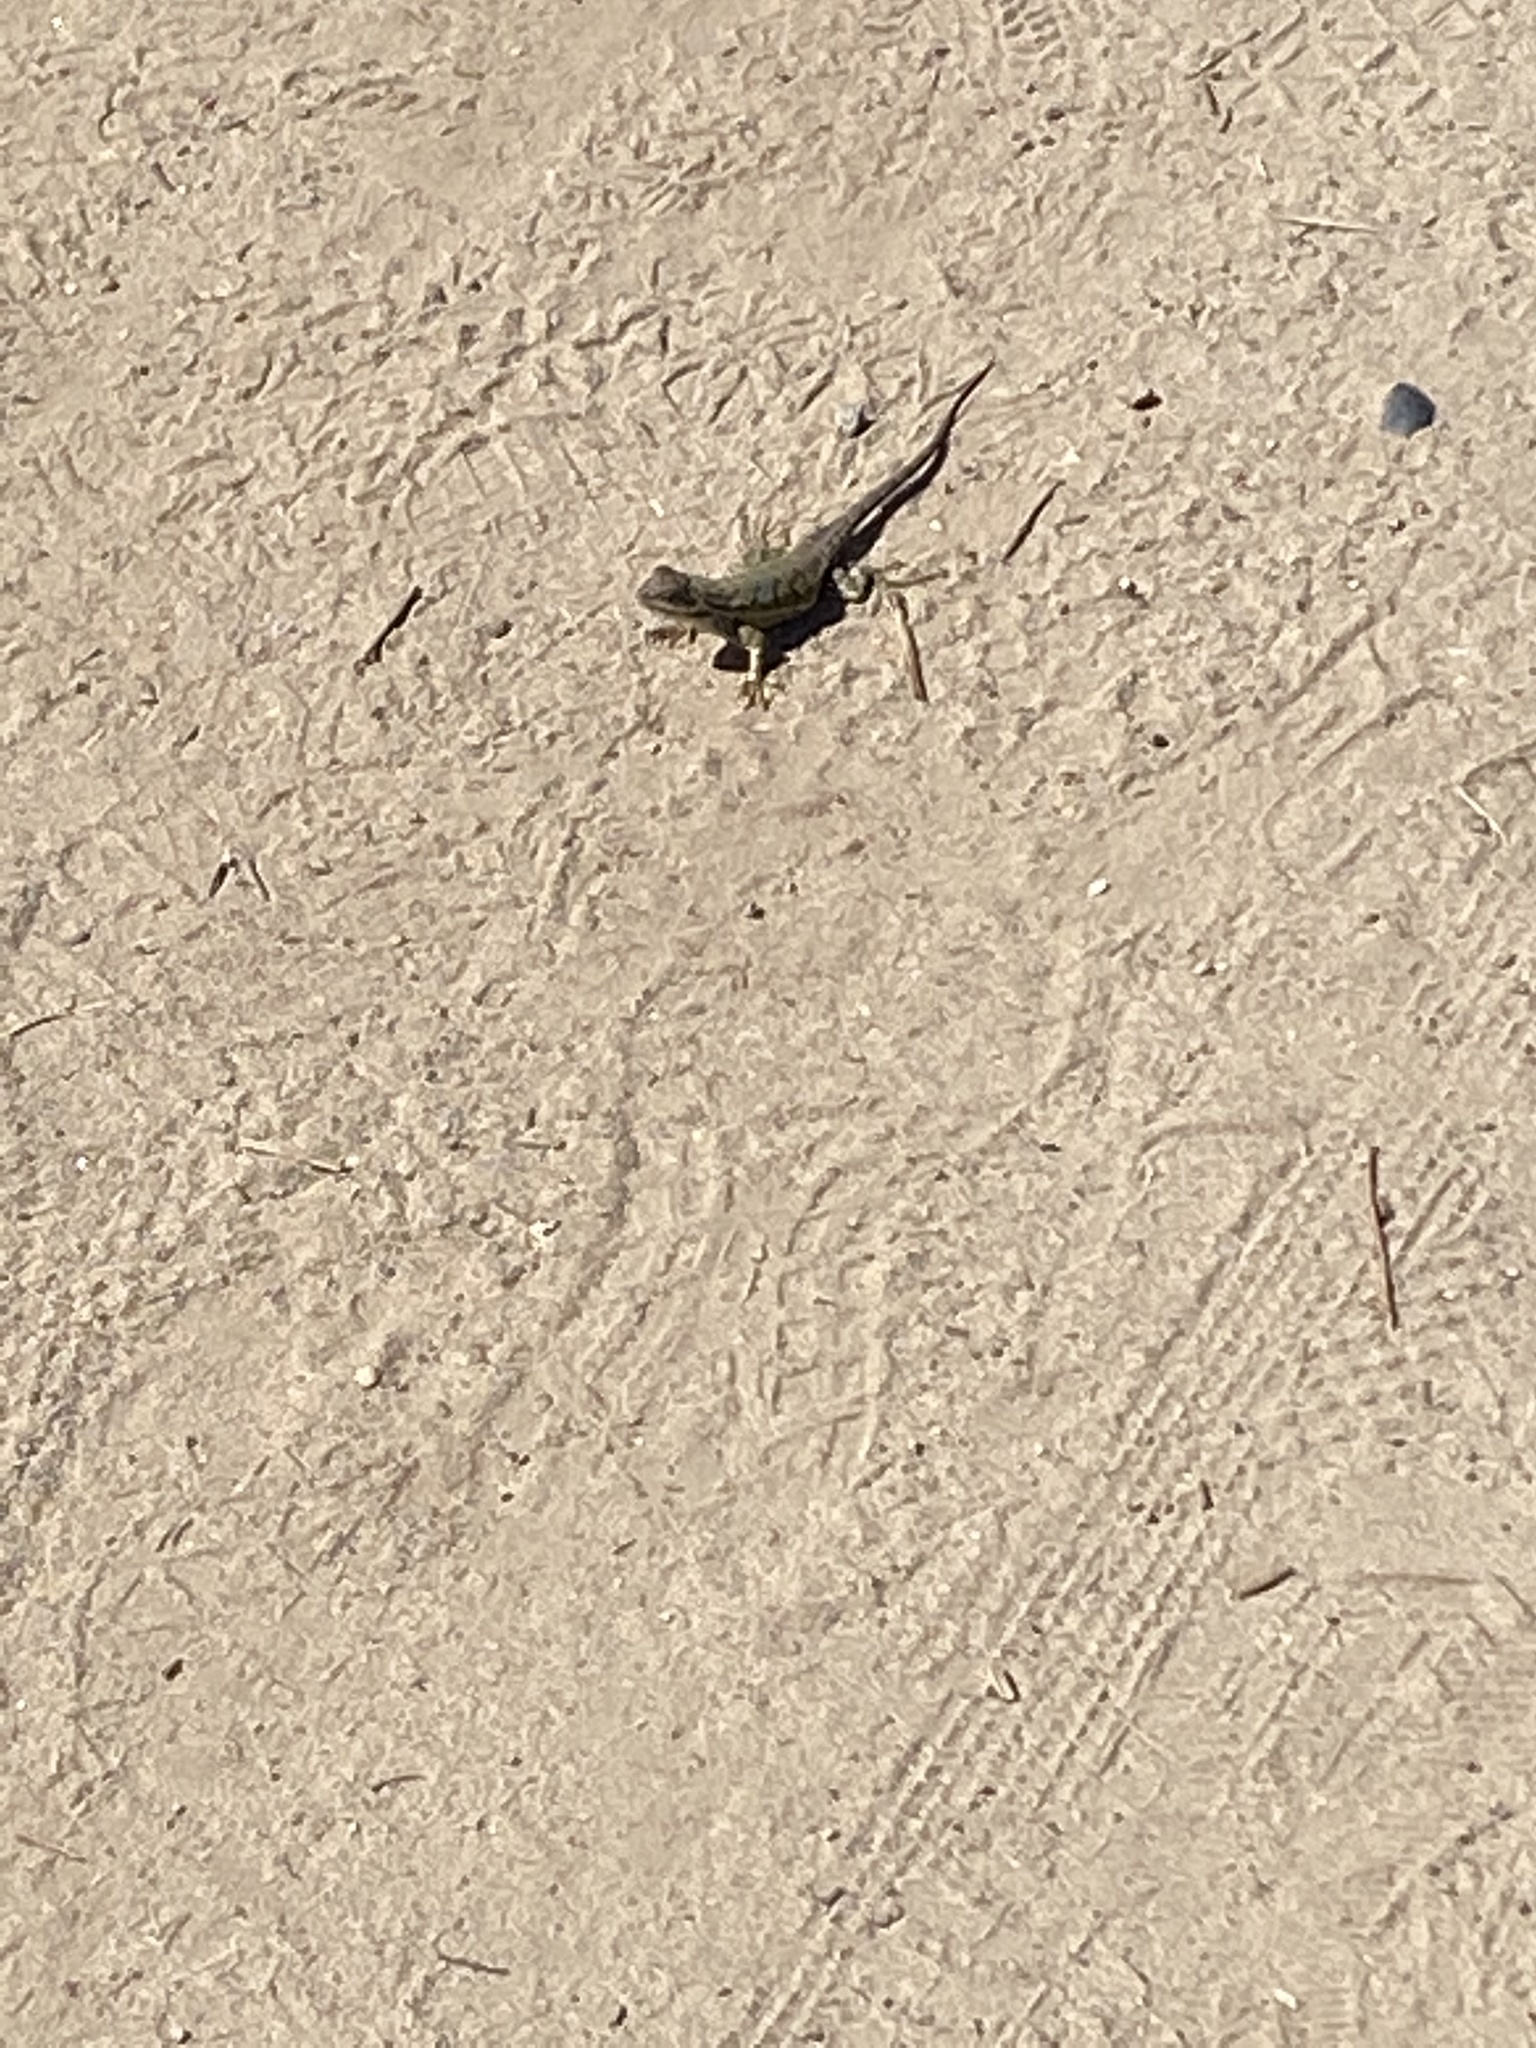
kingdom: Animalia
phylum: Chordata
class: Squamata
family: Phrynosomatidae
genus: Sceloporus
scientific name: Sceloporus occidentalis
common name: Western fence lizard
